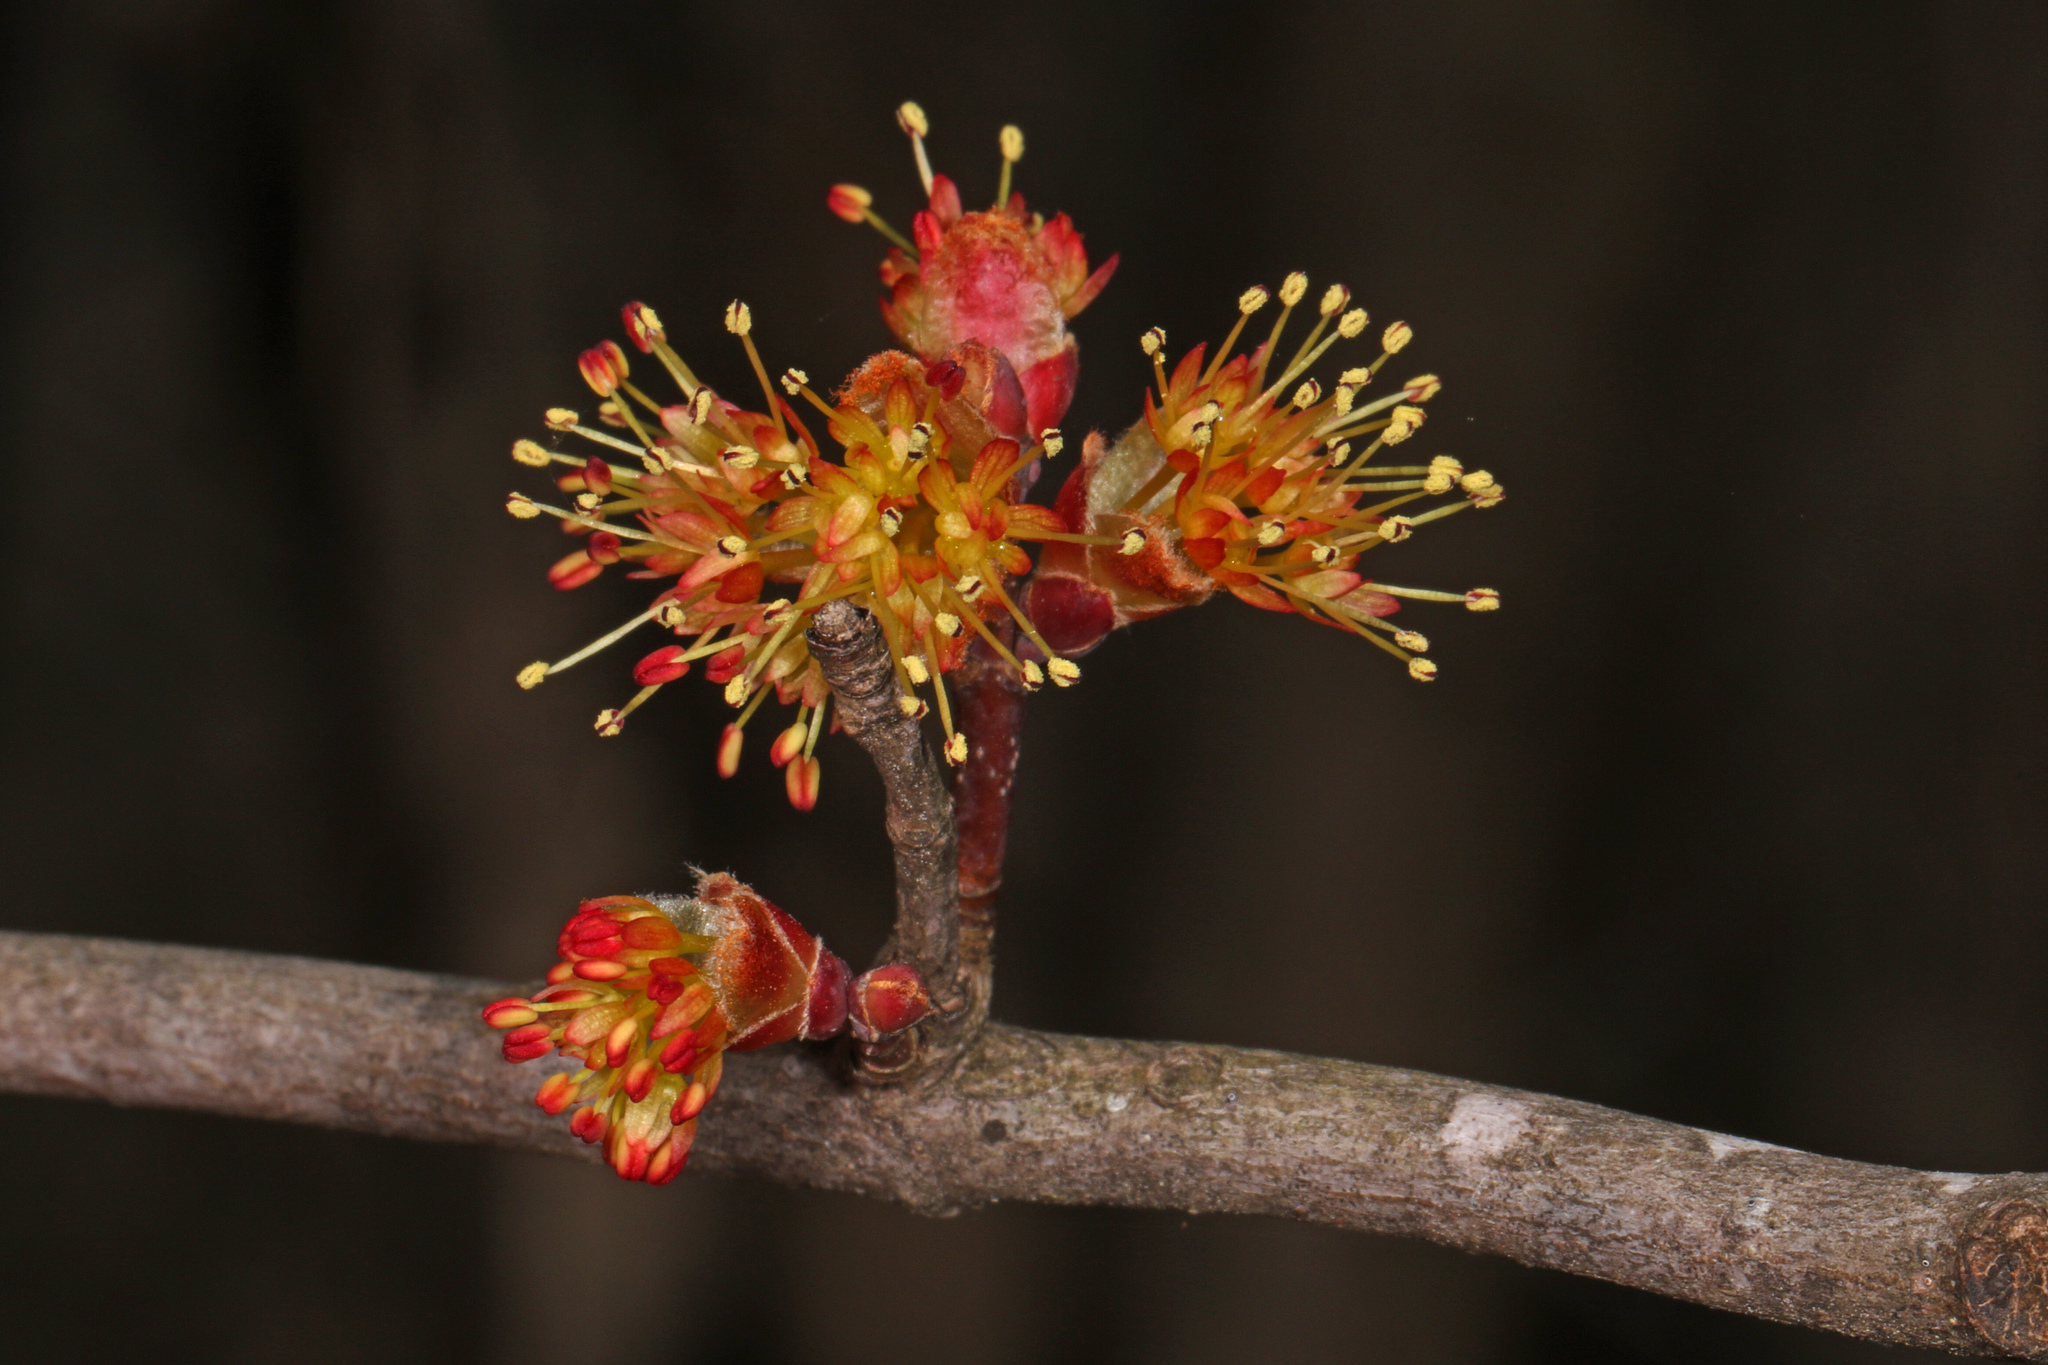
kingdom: Plantae
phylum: Tracheophyta
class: Magnoliopsida
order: Sapindales
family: Sapindaceae
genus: Acer
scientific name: Acer rubrum
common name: Red maple
